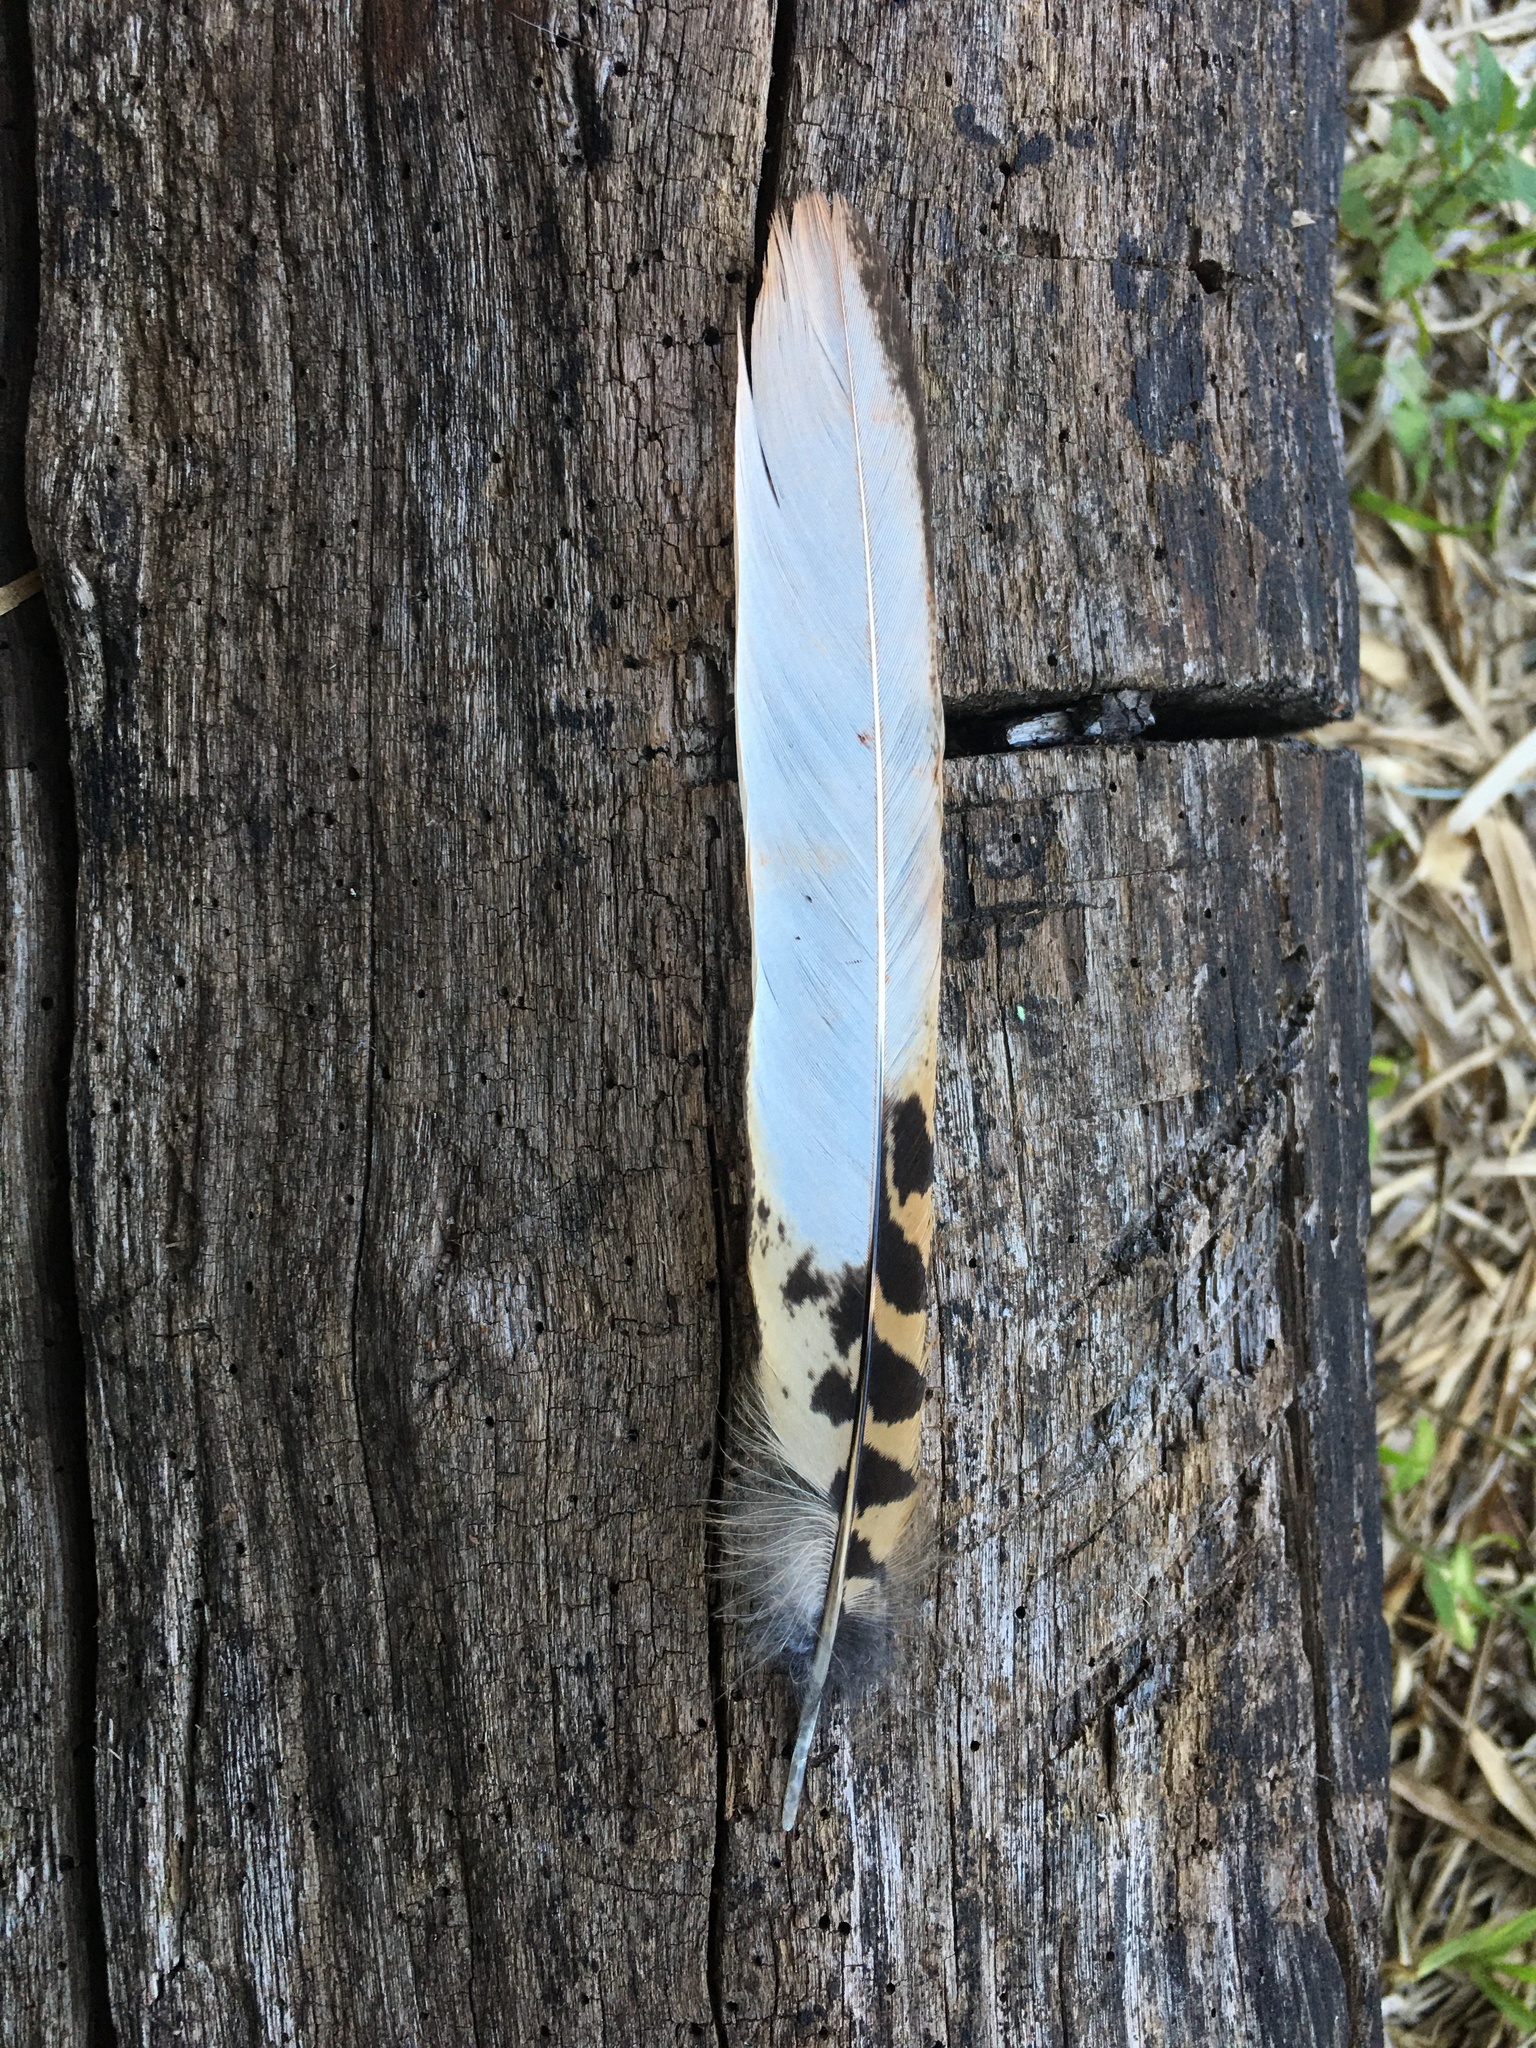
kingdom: Animalia
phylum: Chordata
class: Aves
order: Caprimulgiformes
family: Caprimulgidae
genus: Nyctidromus
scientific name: Nyctidromus albicollis
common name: Pauraque
